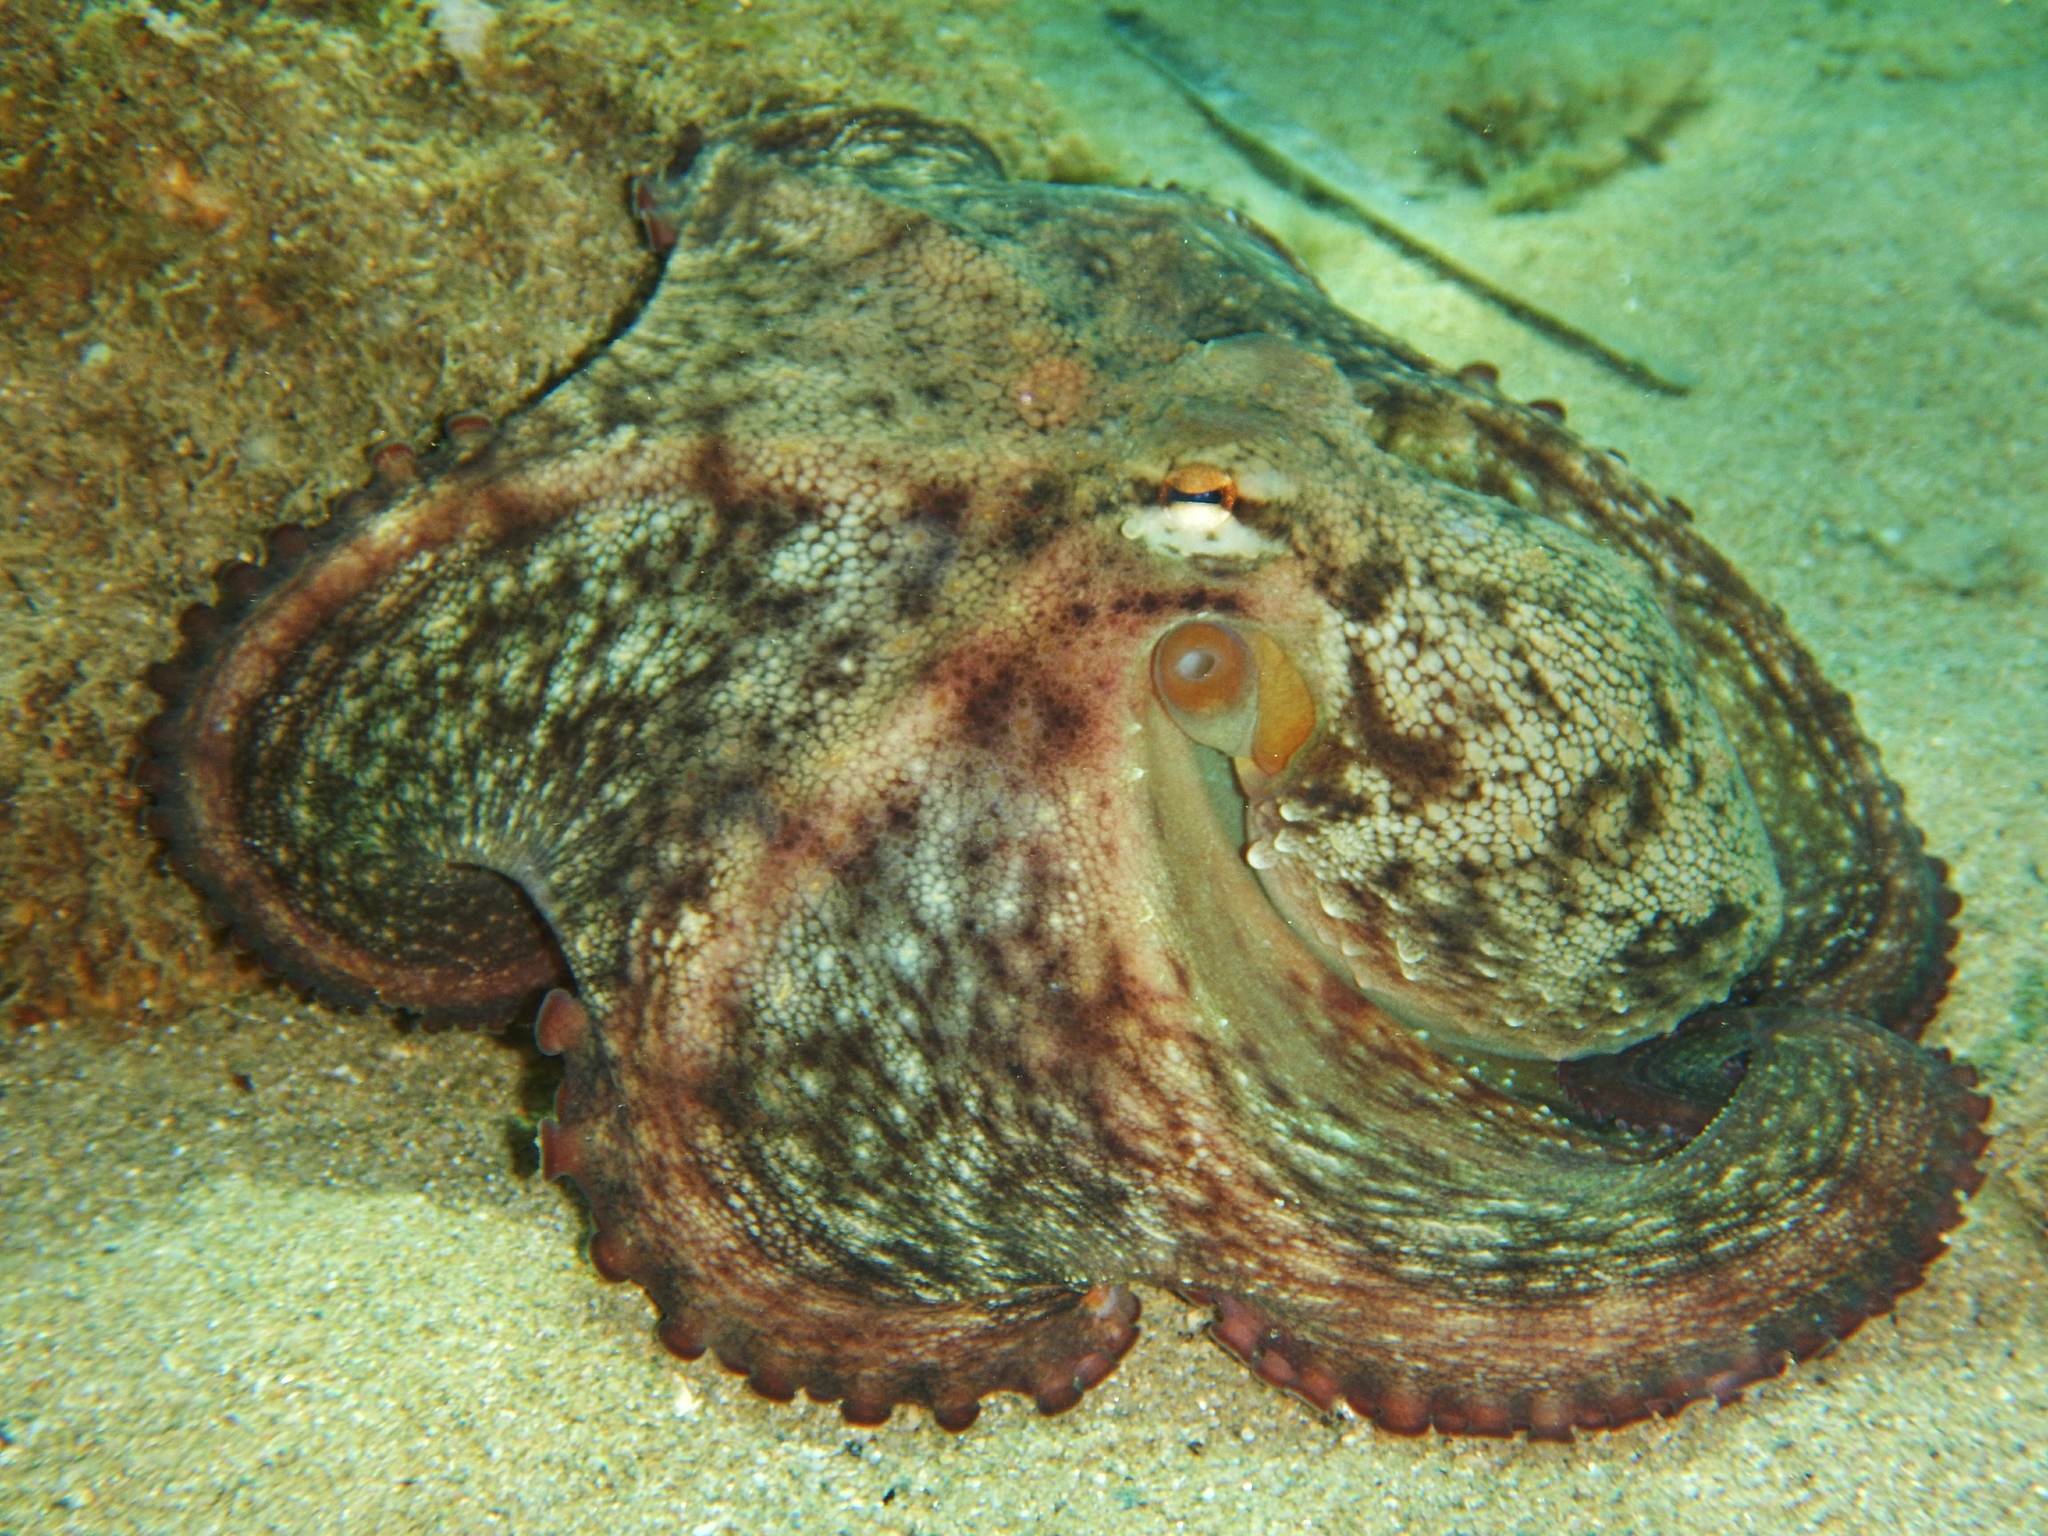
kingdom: Animalia
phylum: Mollusca
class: Cephalopoda
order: Octopoda
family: Octopodidae
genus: Octopus
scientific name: Octopus vulgaris
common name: Common octopus
